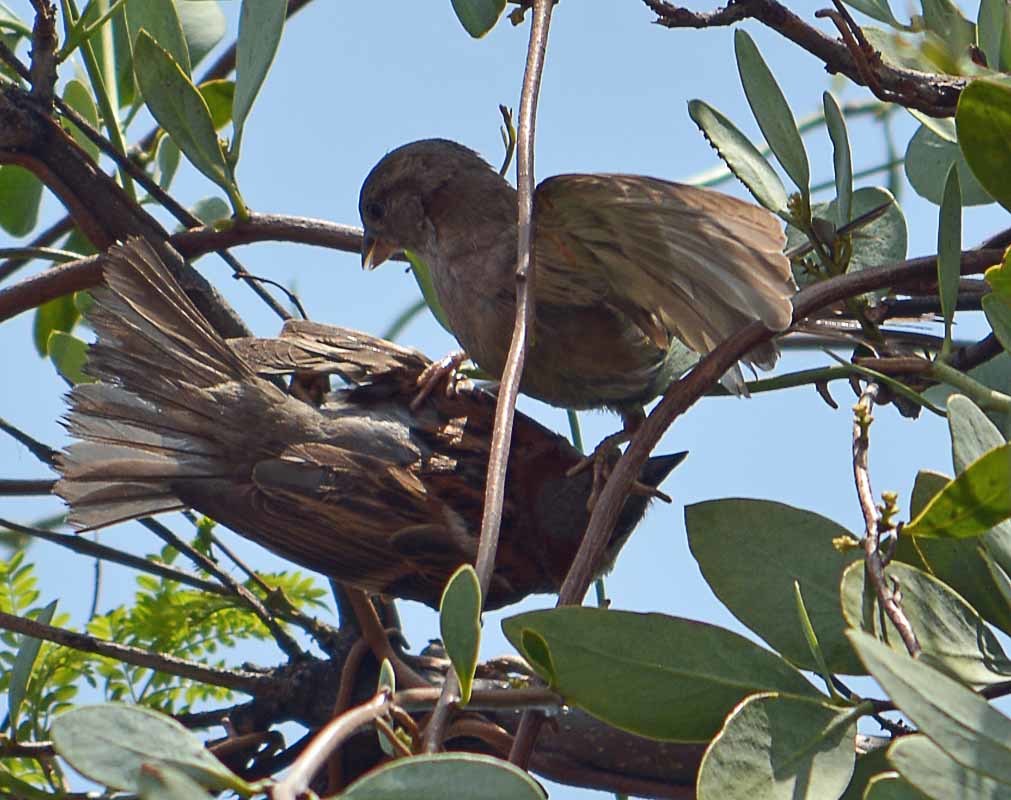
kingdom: Animalia
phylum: Chordata
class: Aves
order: Passeriformes
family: Passeridae
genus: Passer
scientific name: Passer domesticus
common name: House sparrow
